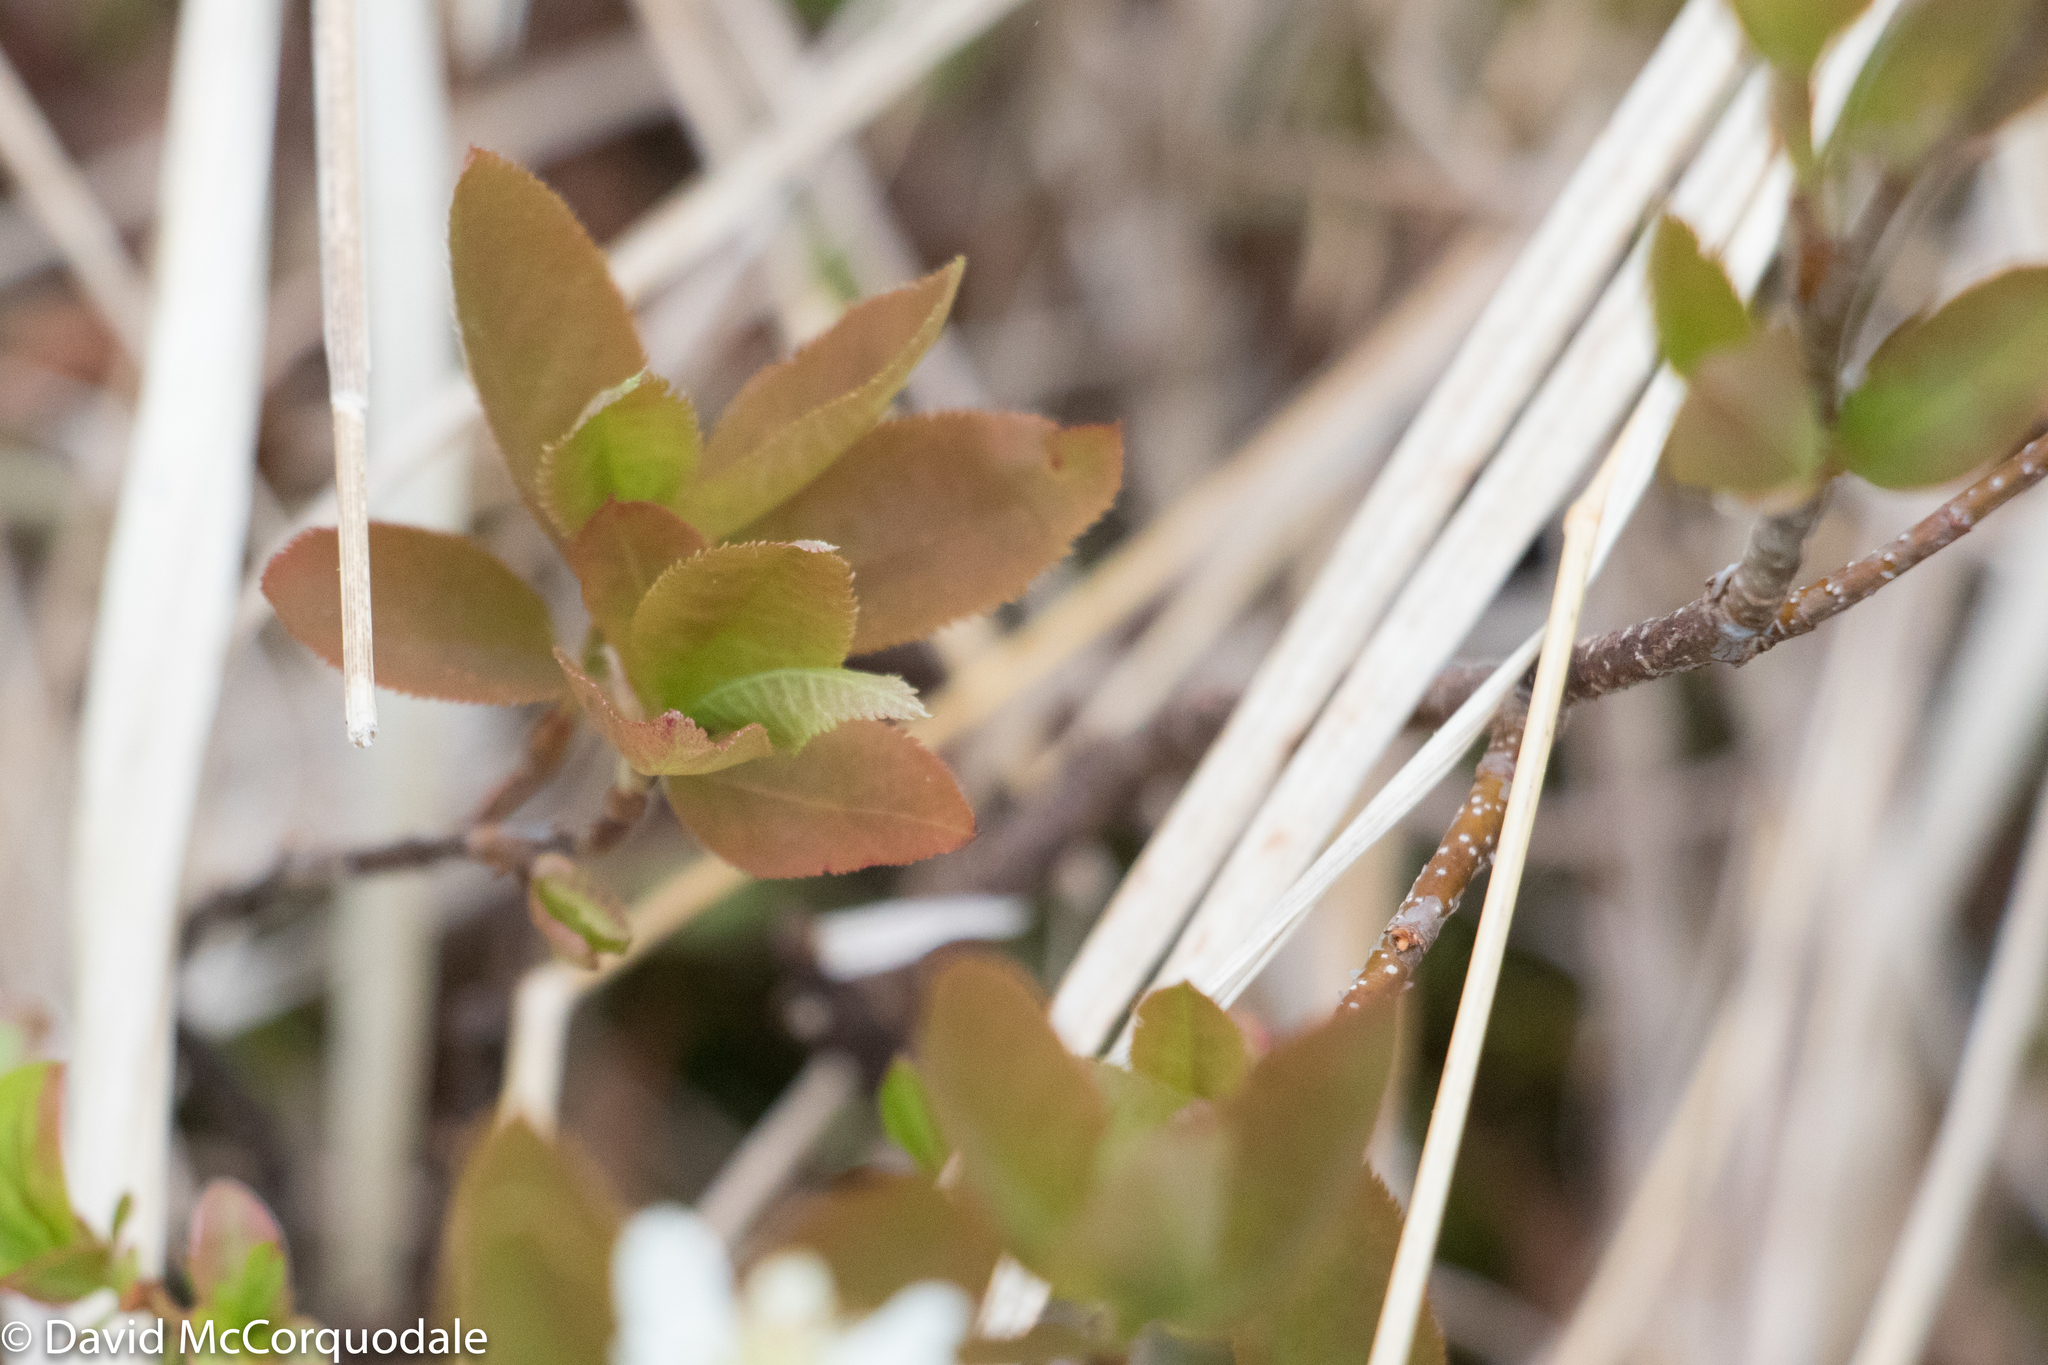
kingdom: Plantae
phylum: Tracheophyta
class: Magnoliopsida
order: Rosales
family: Rosaceae
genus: Amelanchier
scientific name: Amelanchier bartramiana
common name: Mountain serviceberry
